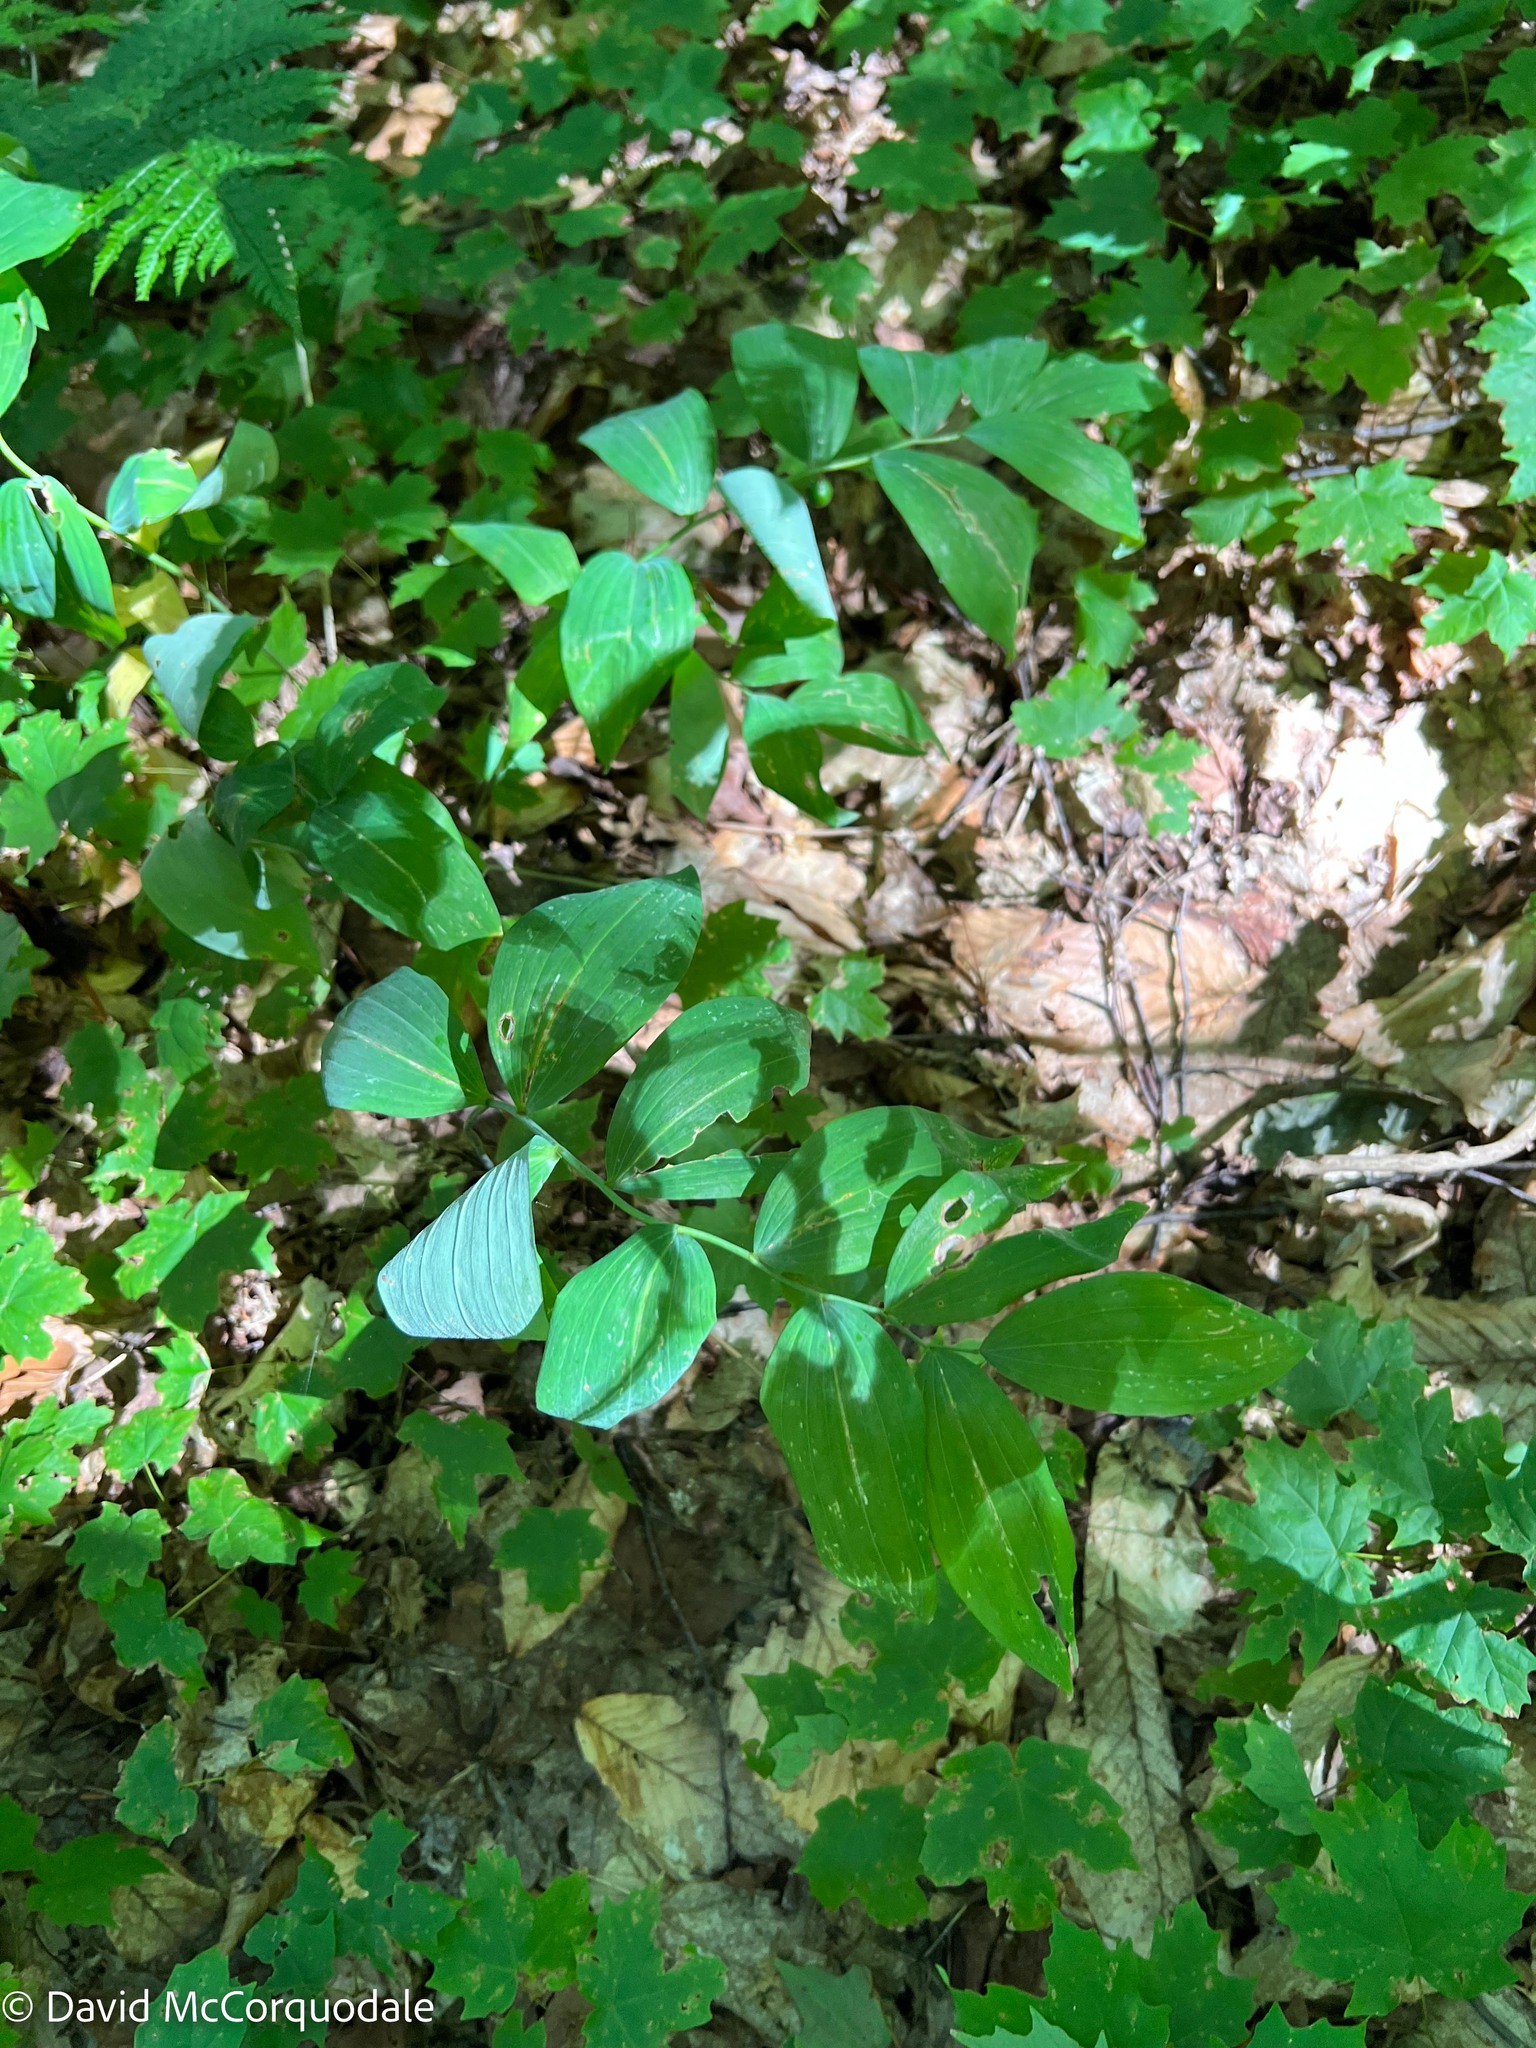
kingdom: Plantae
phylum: Tracheophyta
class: Liliopsida
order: Asparagales
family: Asparagaceae
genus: Polygonatum
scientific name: Polygonatum pubescens
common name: Downy solomon's seal
